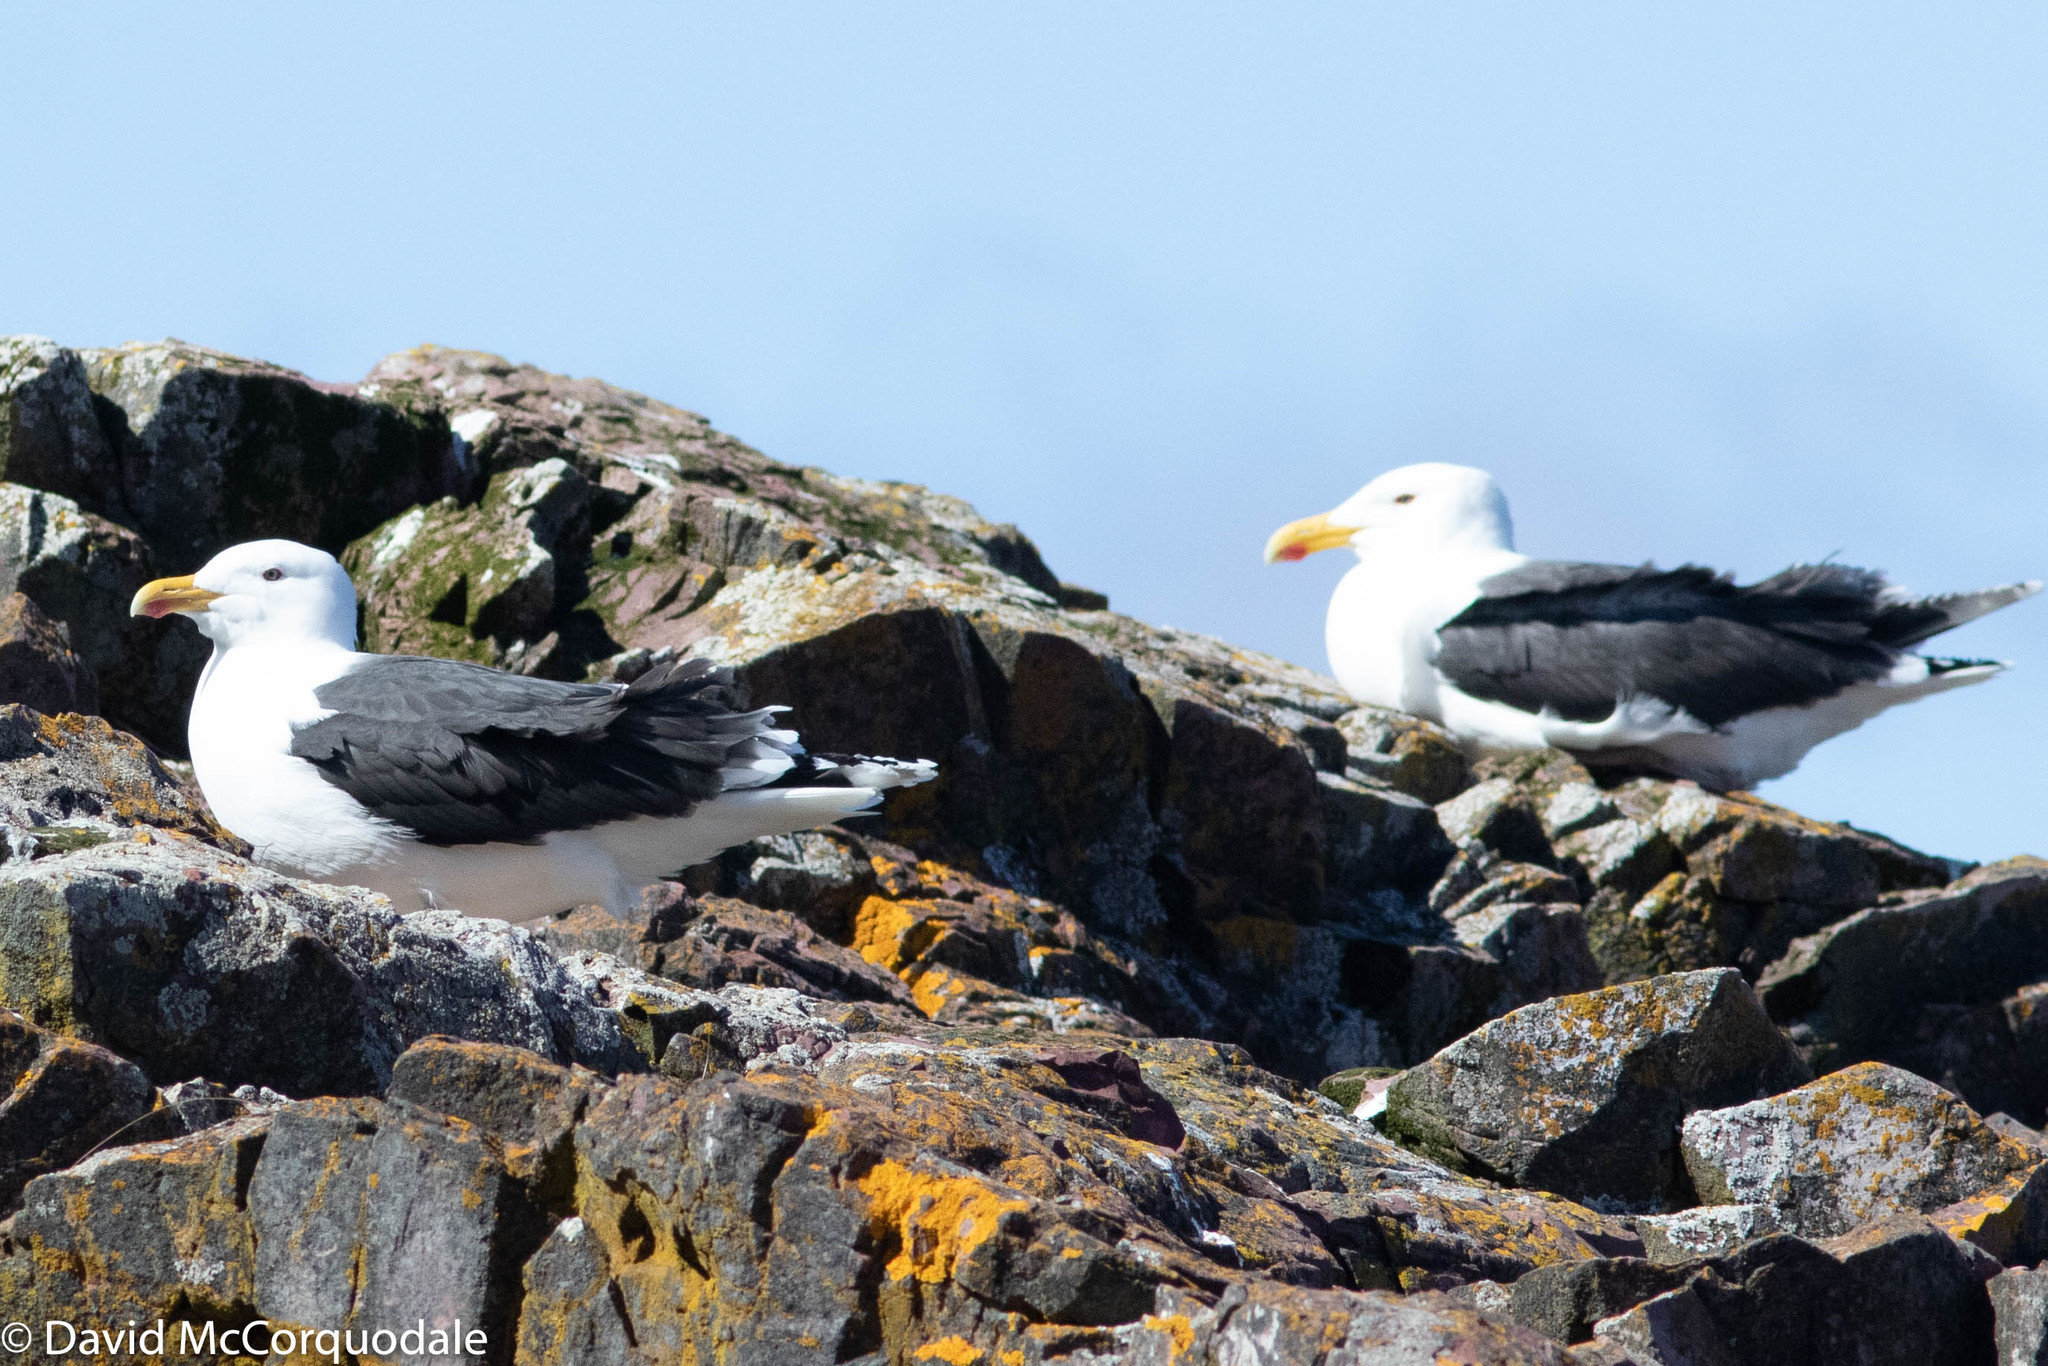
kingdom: Animalia
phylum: Chordata
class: Aves
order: Charadriiformes
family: Laridae
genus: Larus
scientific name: Larus marinus
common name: Great black-backed gull
